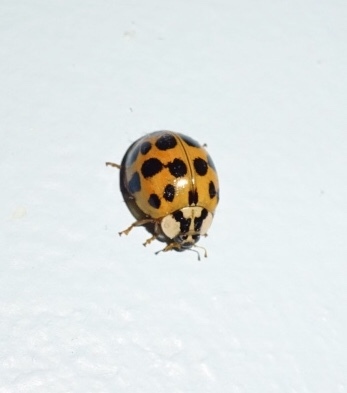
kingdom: Animalia
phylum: Arthropoda
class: Insecta
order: Coleoptera
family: Coccinellidae
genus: Harmonia
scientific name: Harmonia axyridis
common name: Harlequin ladybird
